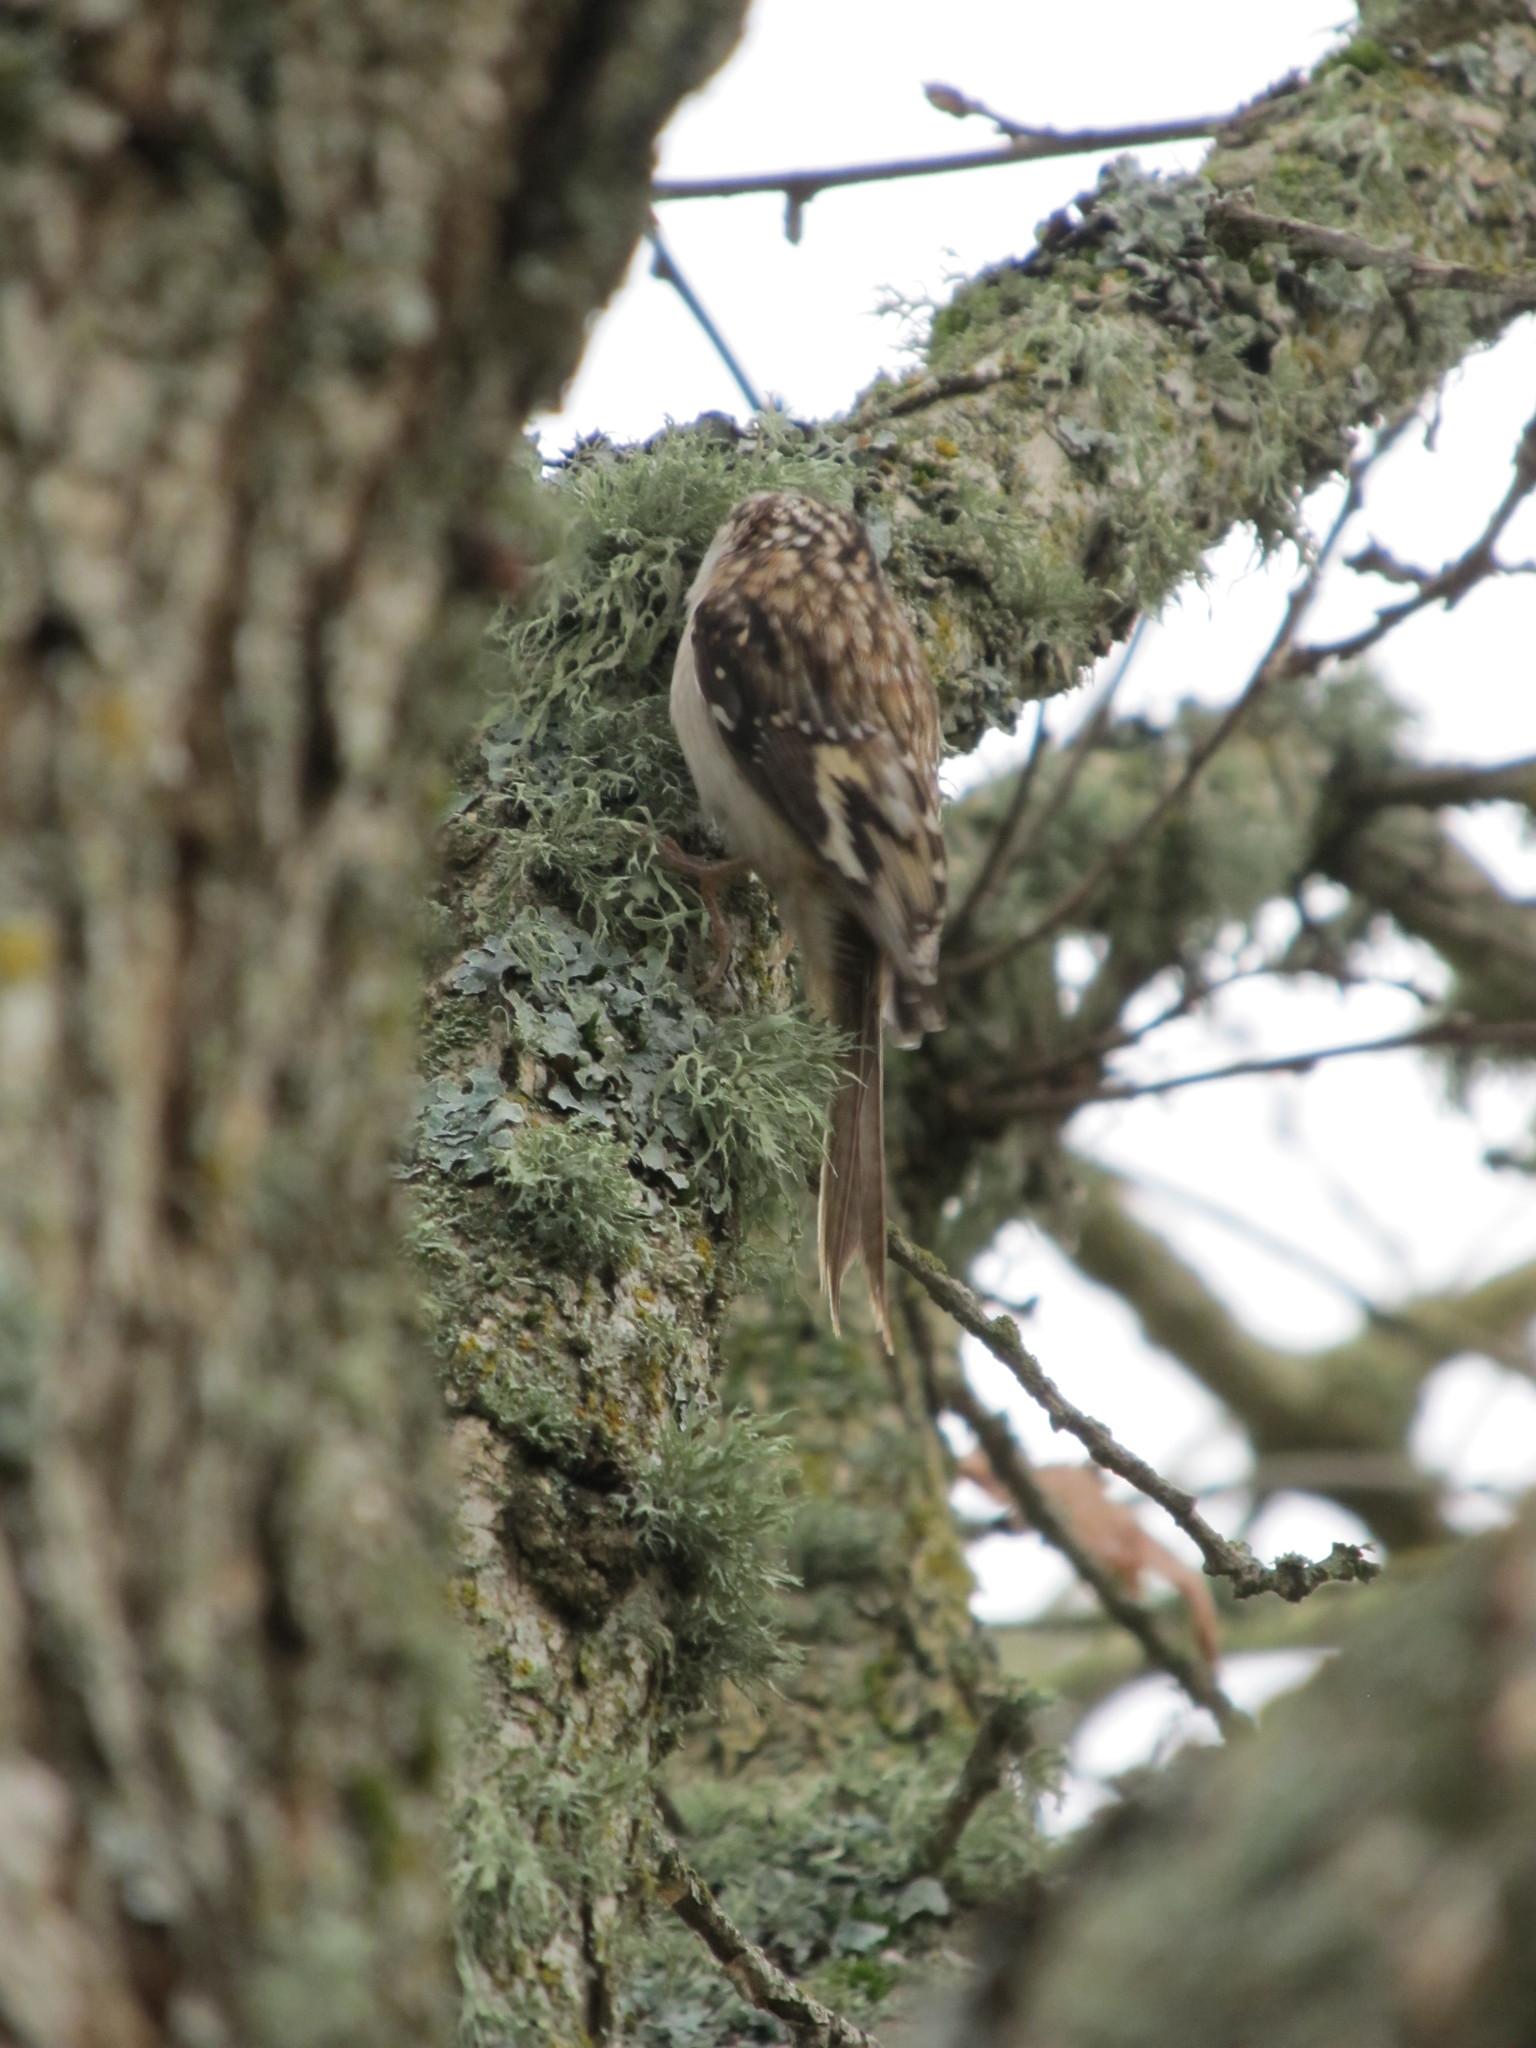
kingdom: Animalia
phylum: Chordata
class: Aves
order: Passeriformes
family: Certhiidae
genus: Certhia
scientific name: Certhia americana
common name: Brown creeper
